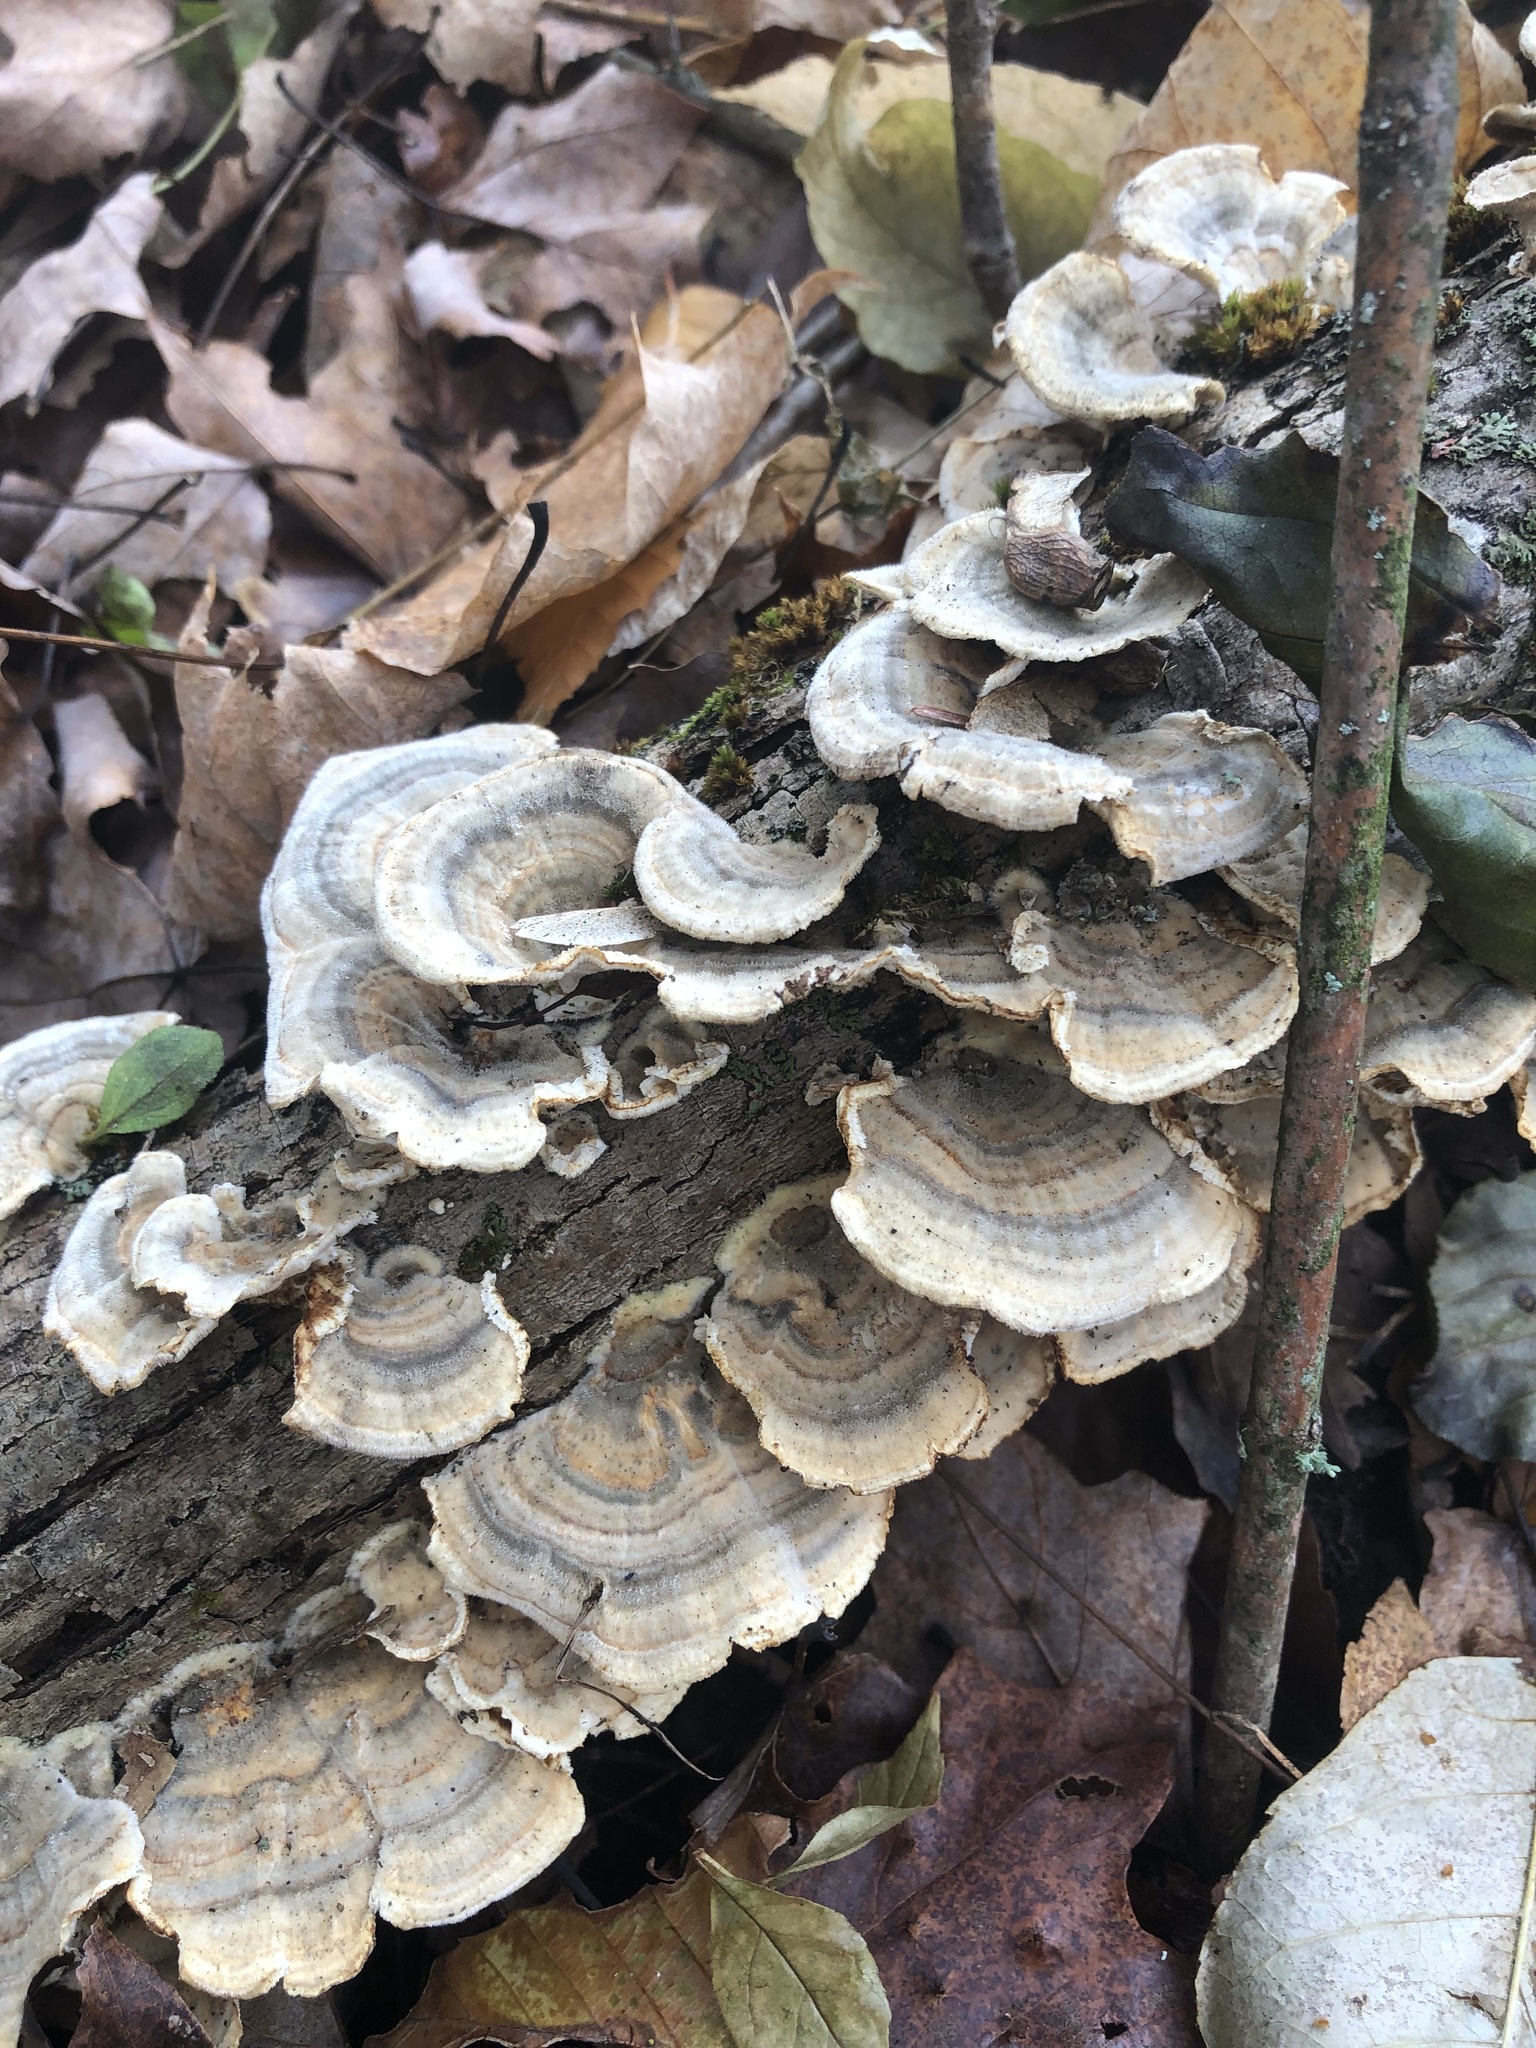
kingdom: Fungi
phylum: Basidiomycota
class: Agaricomycetes
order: Polyporales
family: Polyporaceae
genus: Trametes
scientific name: Trametes versicolor
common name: Turkeytail
